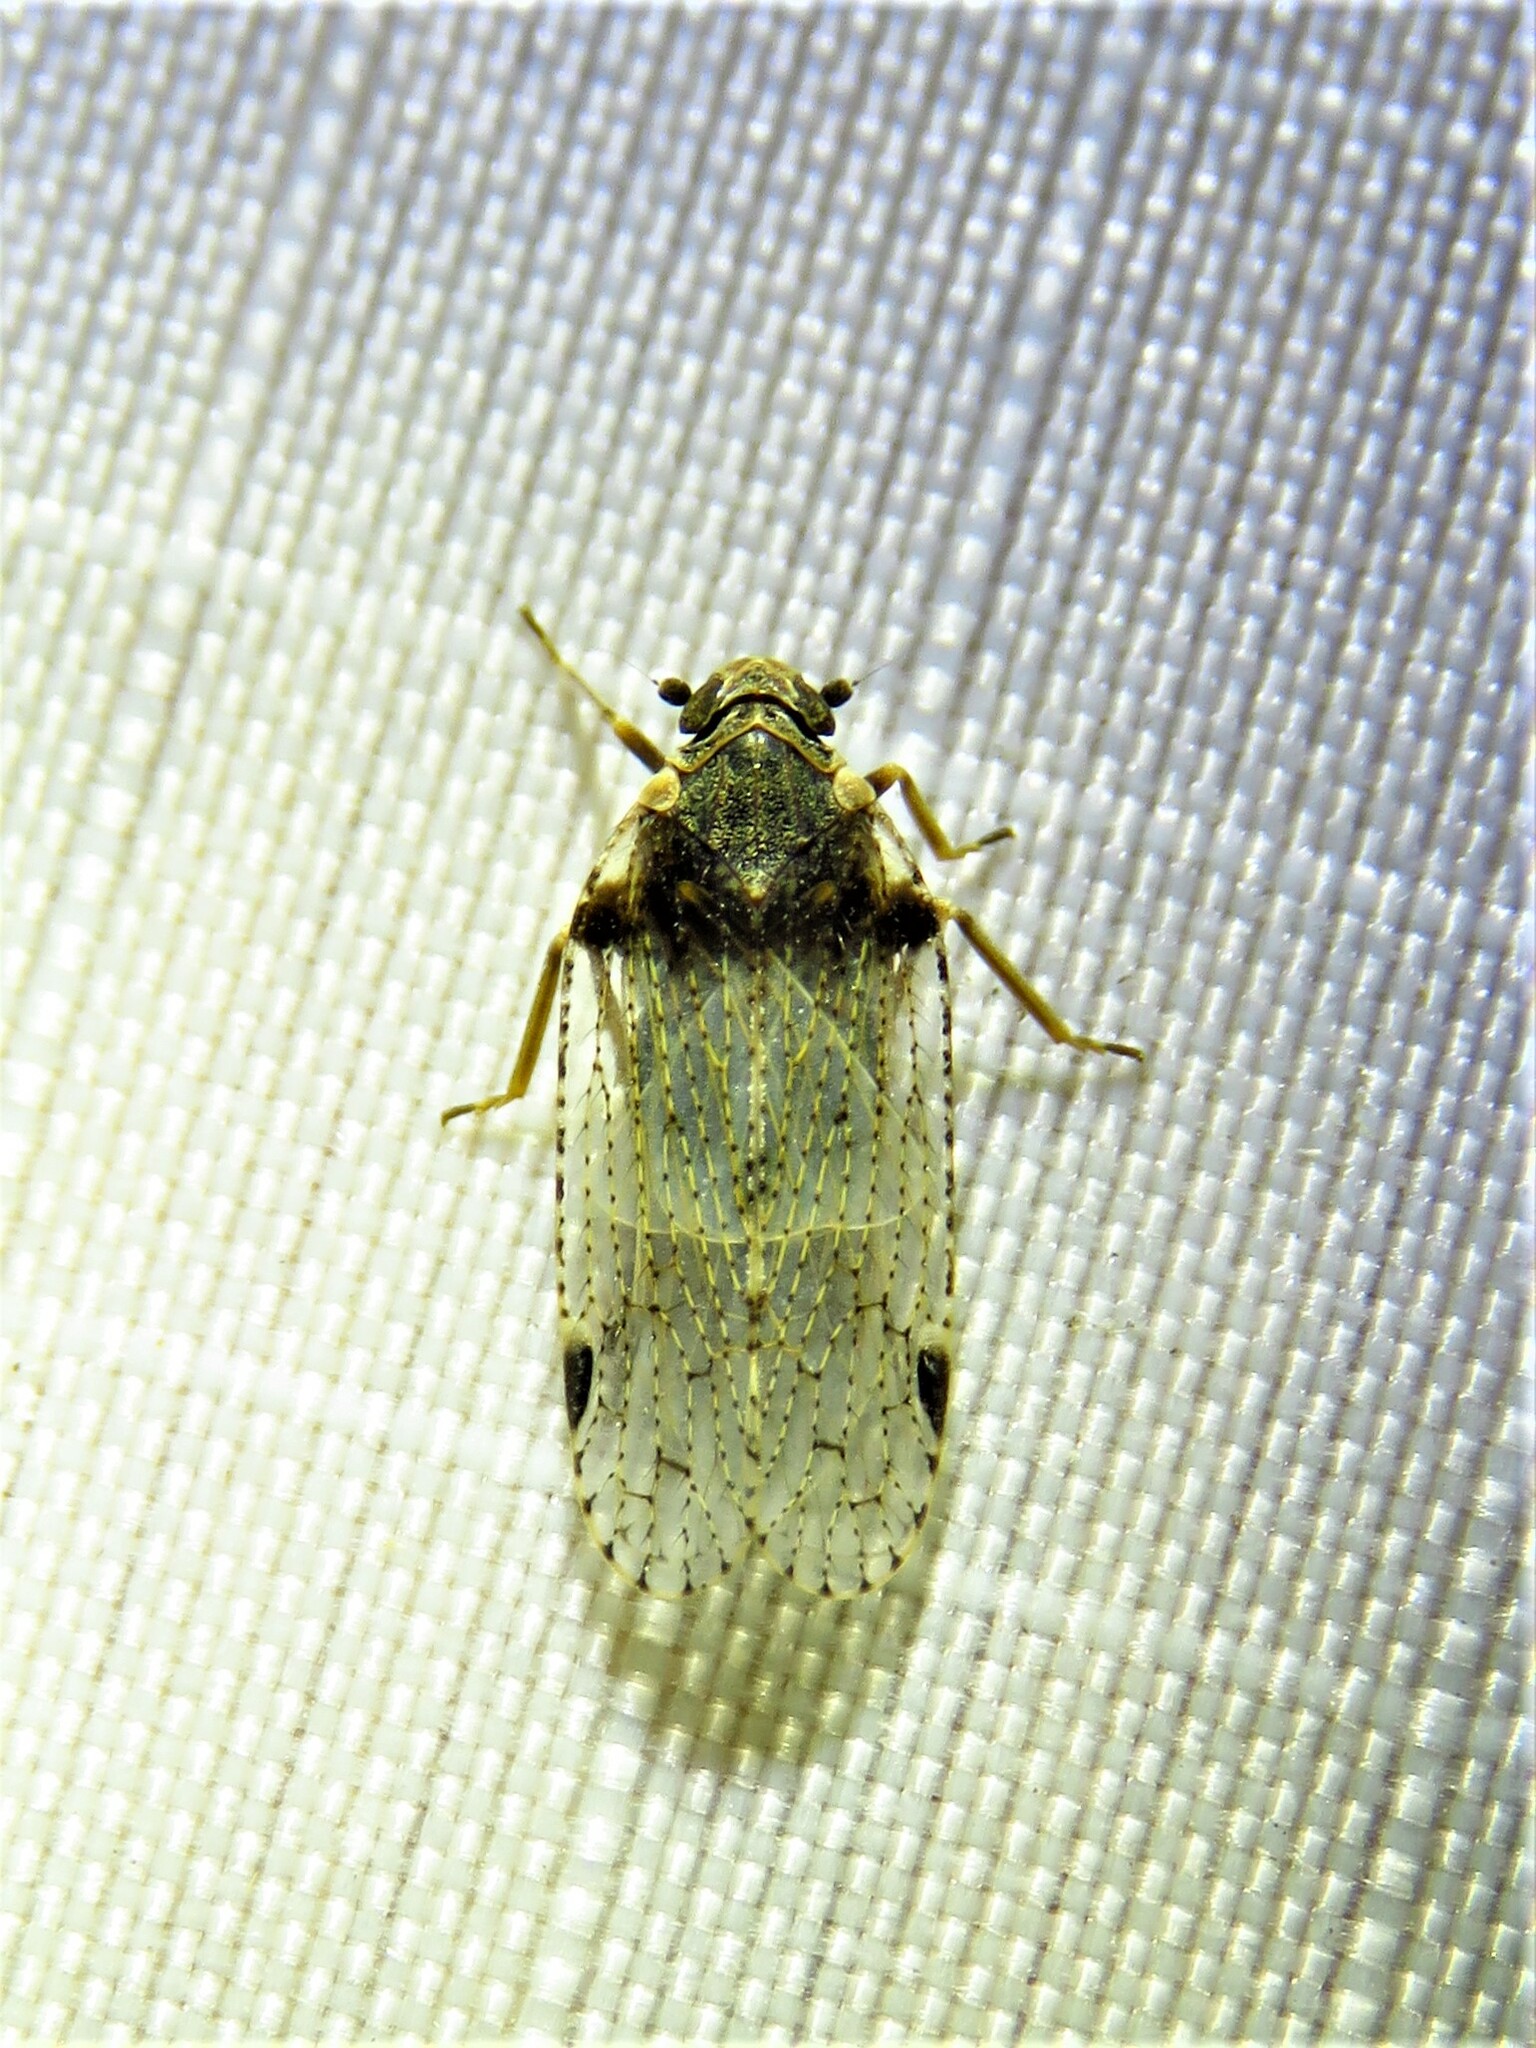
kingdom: Animalia
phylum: Arthropoda
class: Insecta
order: Hemiptera
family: Cixiidae
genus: Cixius
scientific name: Cixius stigmatus
